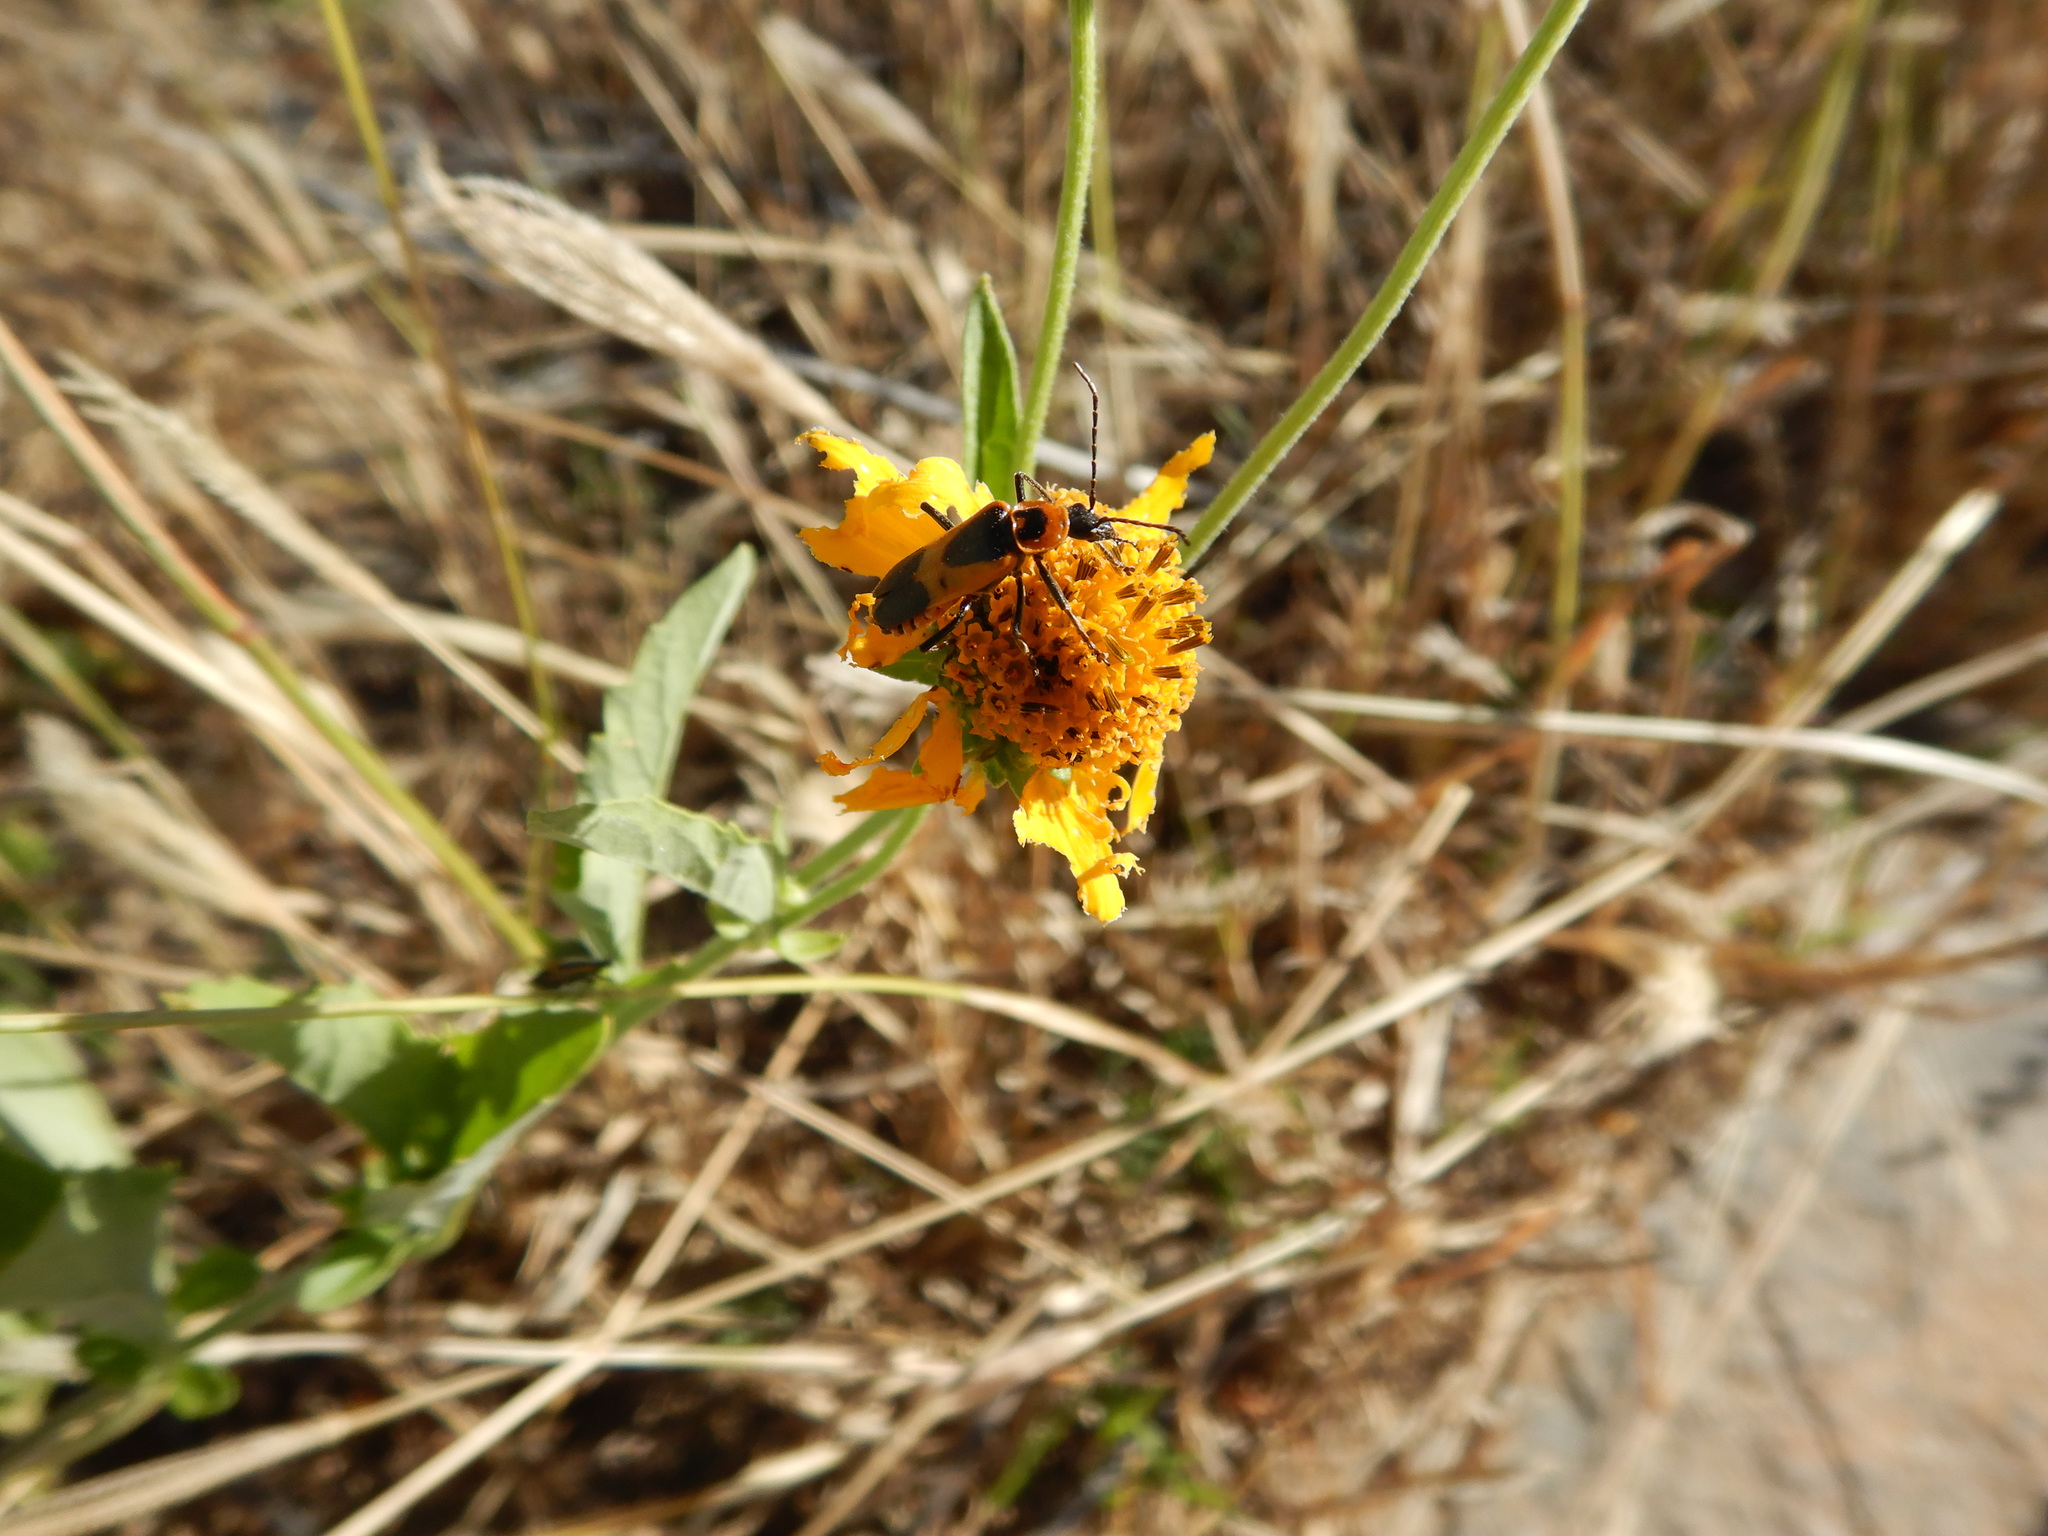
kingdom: Animalia
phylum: Arthropoda
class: Insecta
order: Coleoptera
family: Cantharidae
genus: Chauliognathus
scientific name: Chauliognathus basalis
